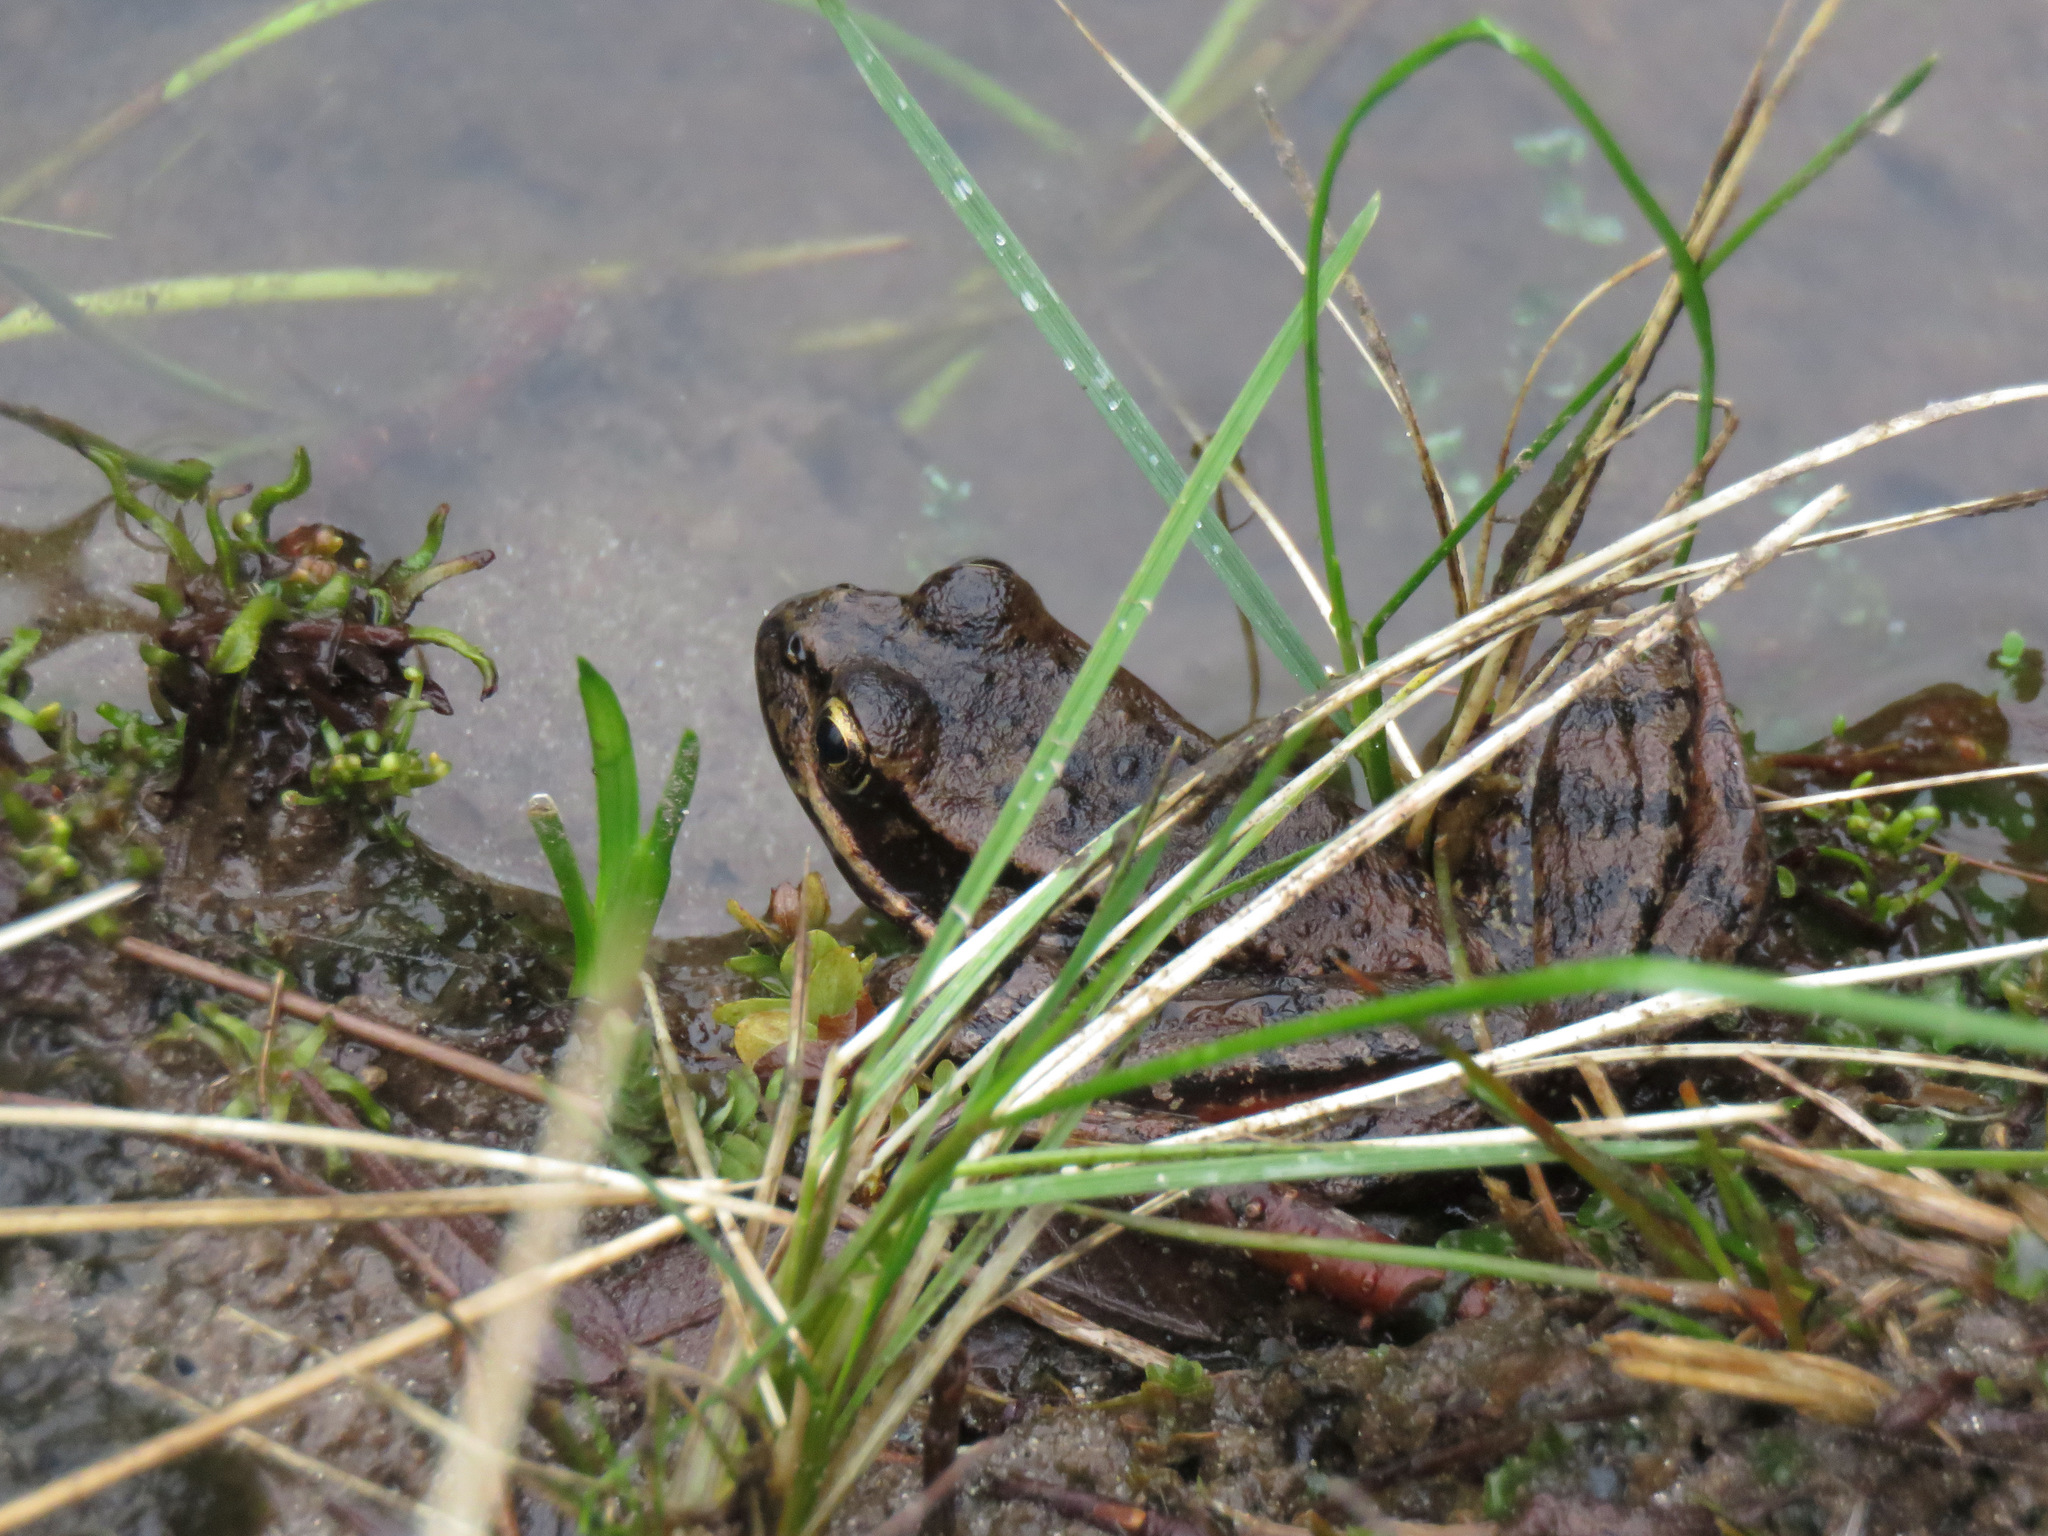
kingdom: Animalia
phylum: Chordata
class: Amphibia
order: Anura
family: Ranidae
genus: Rana
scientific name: Rana aurora
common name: Red-legged frog
